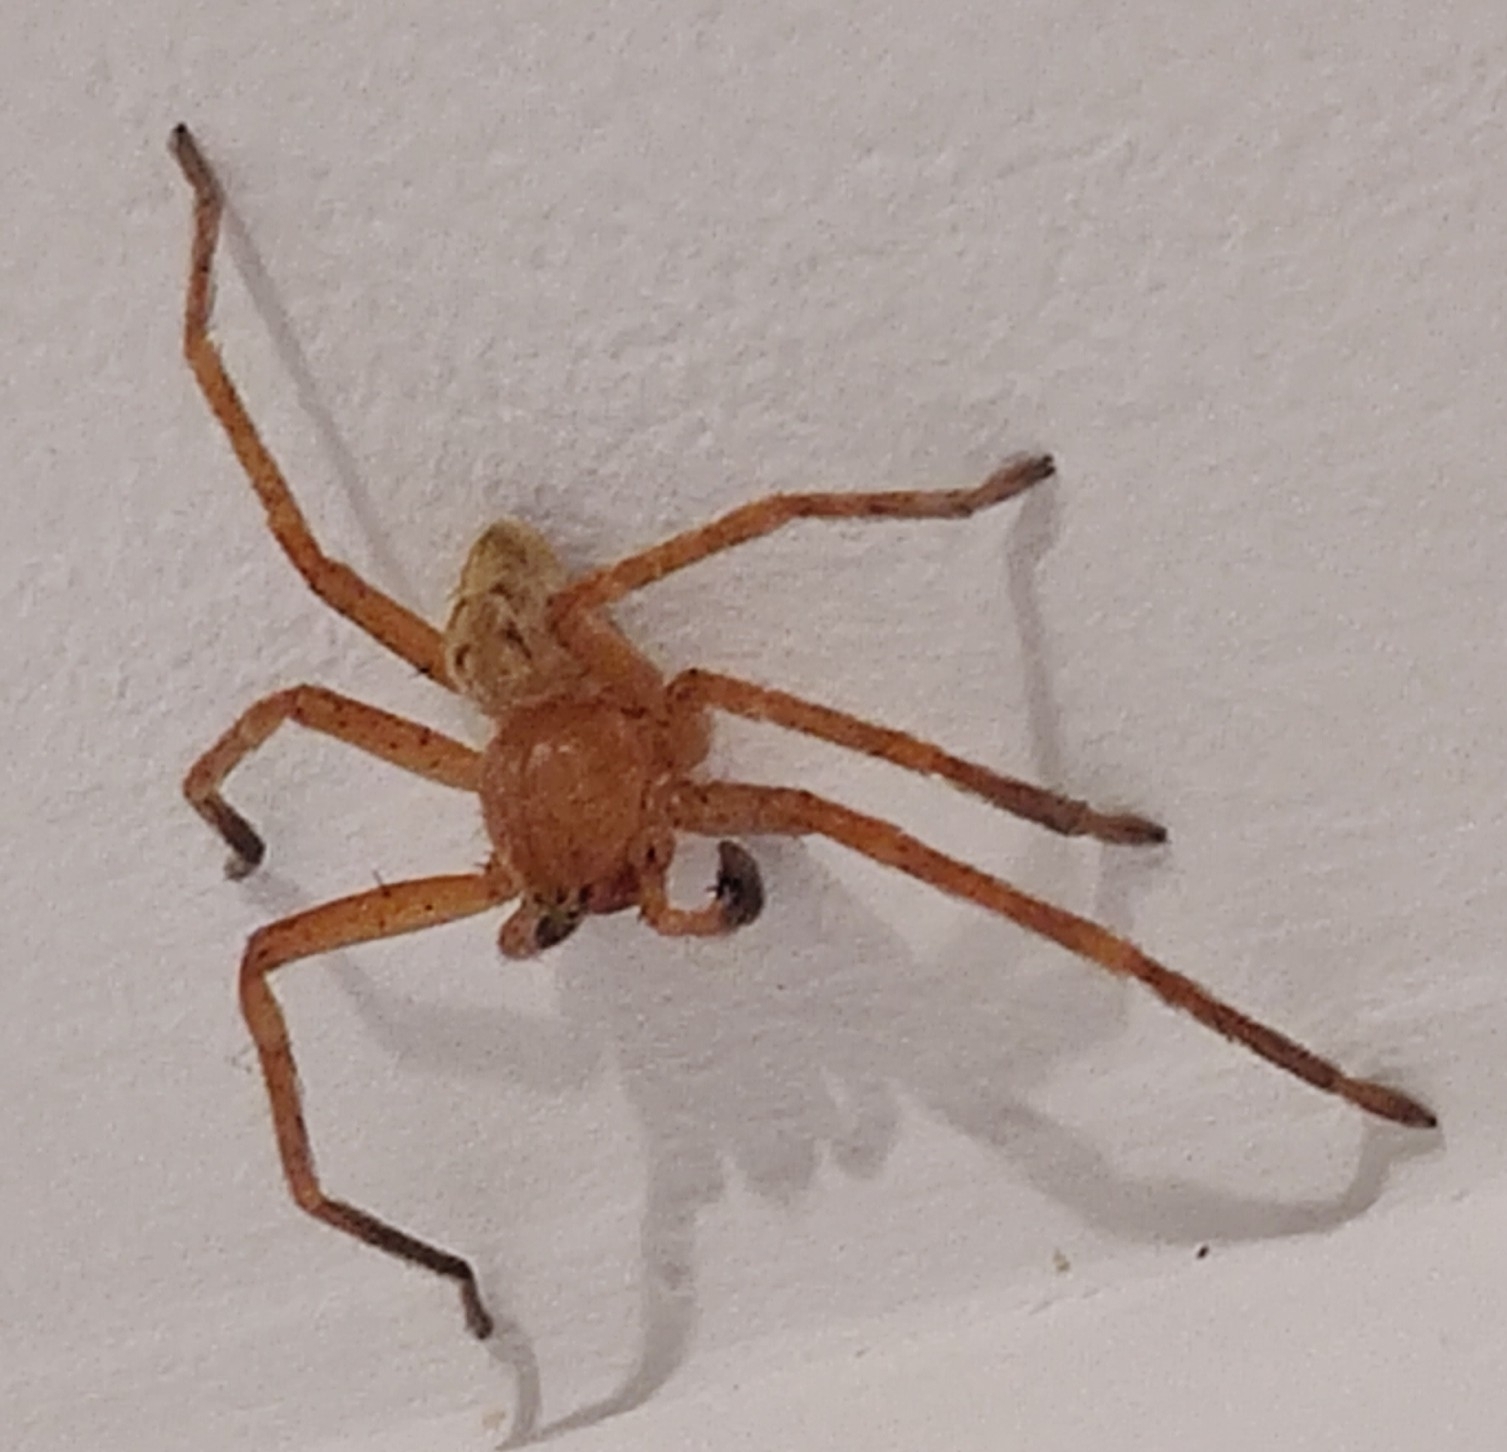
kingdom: Animalia
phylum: Arthropoda
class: Arachnida
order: Araneae
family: Sparassidae
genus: Olios
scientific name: Olios argelasius
